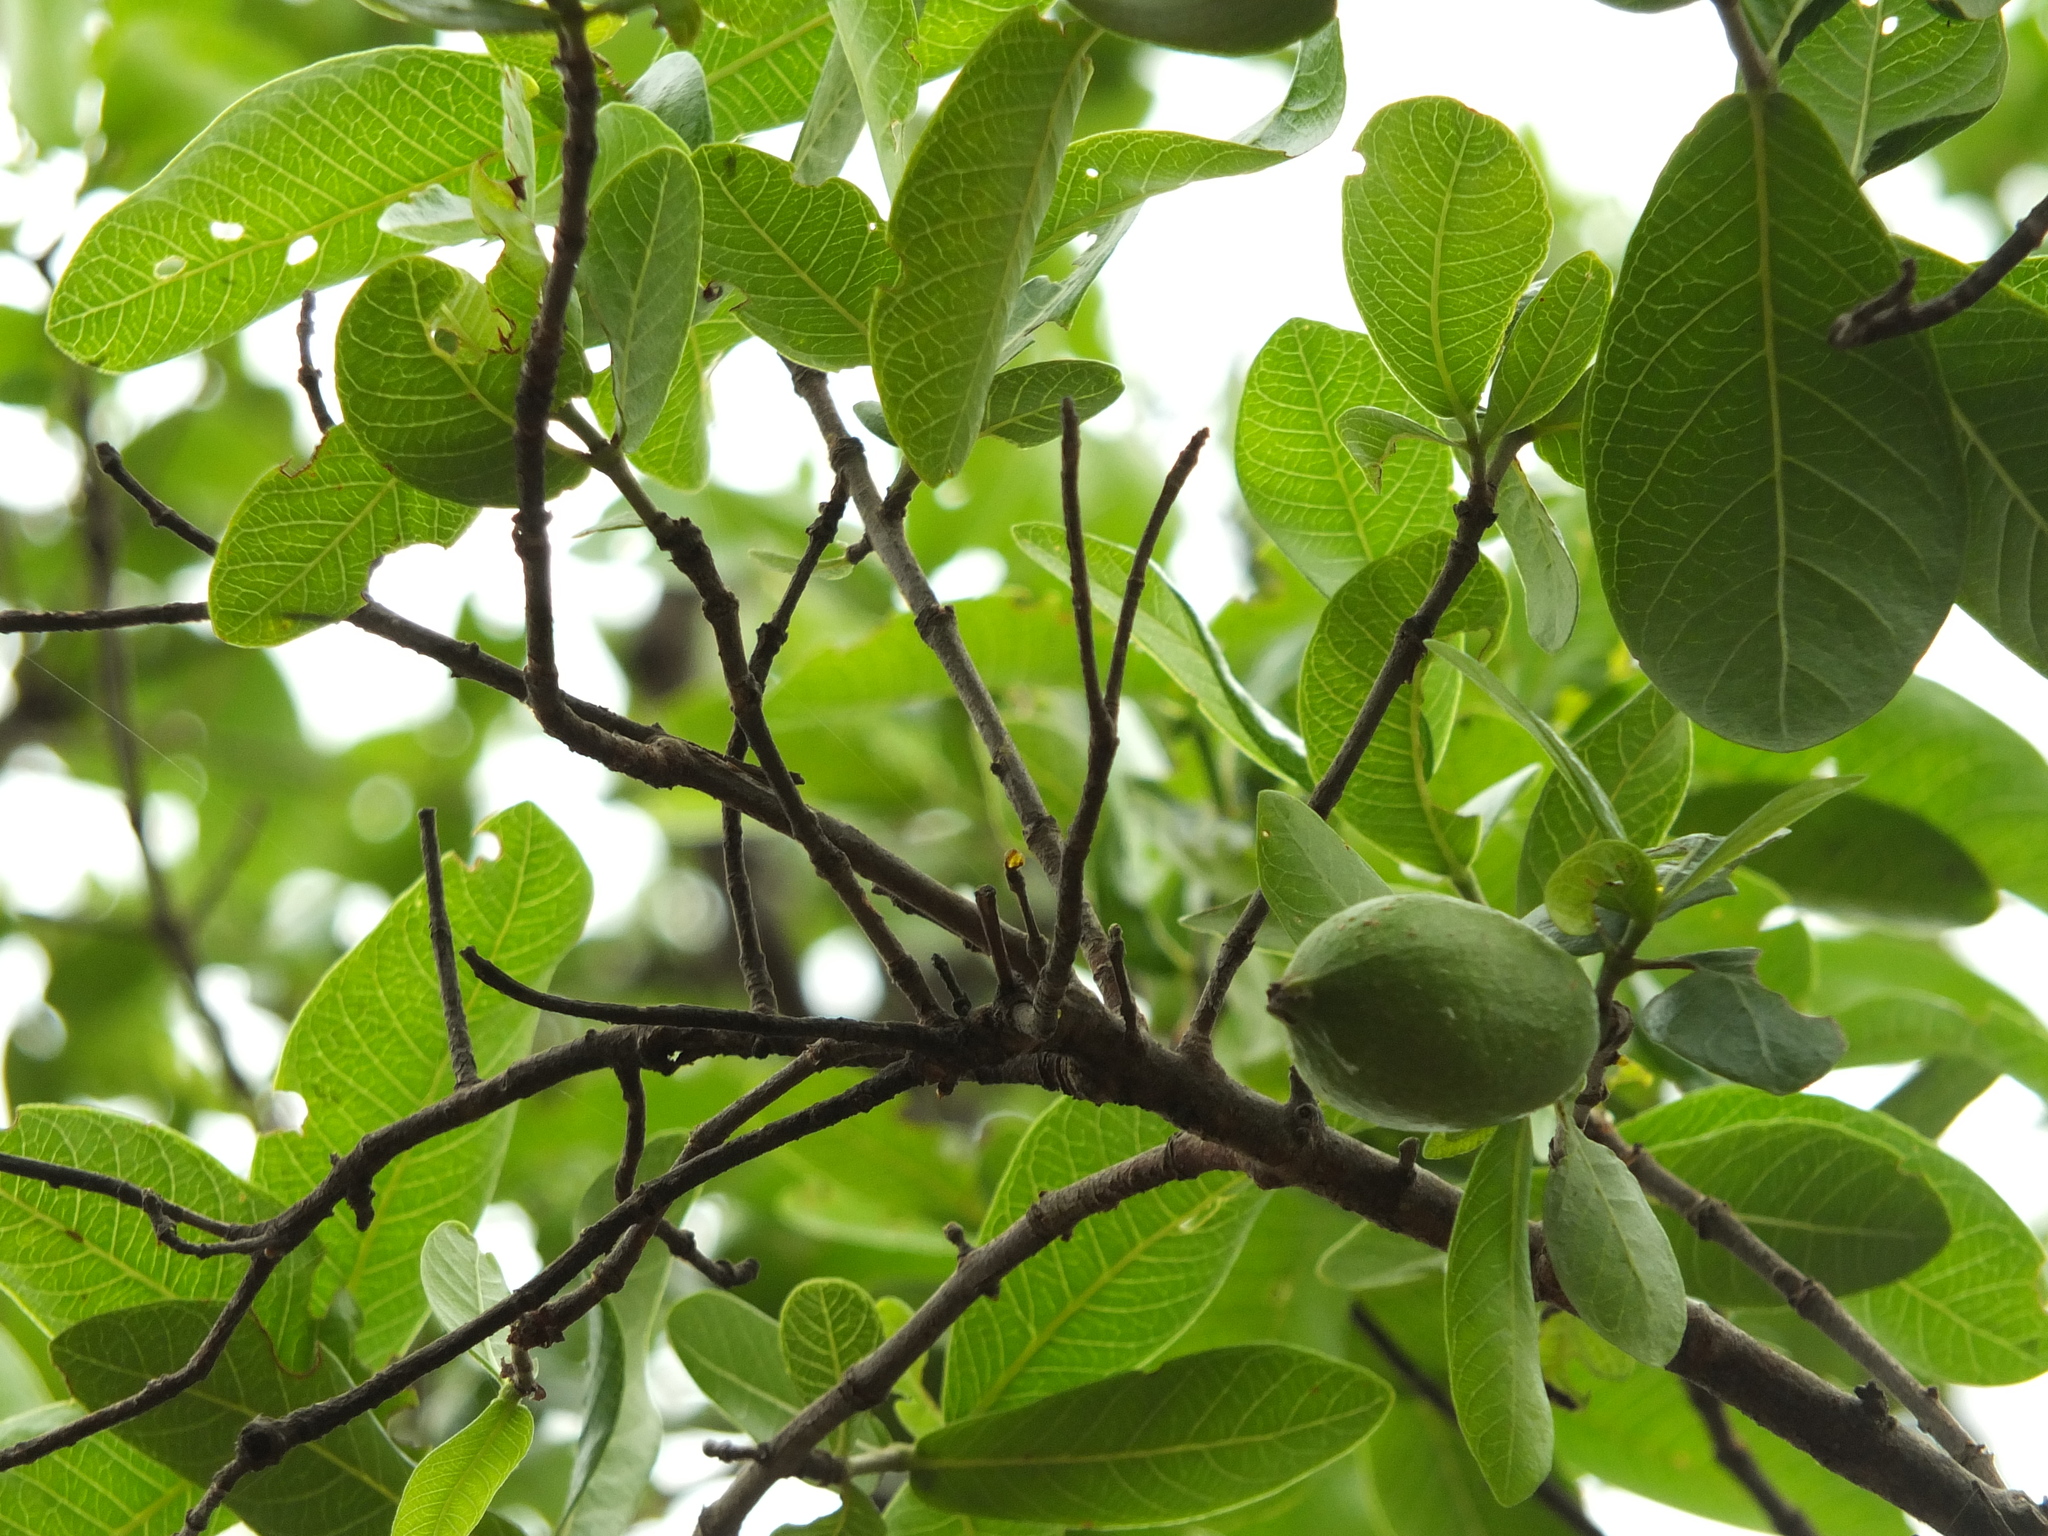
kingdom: Plantae
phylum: Tracheophyta
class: Magnoliopsida
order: Gentianales
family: Rubiaceae
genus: Gardenia
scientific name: Gardenia resinifera
